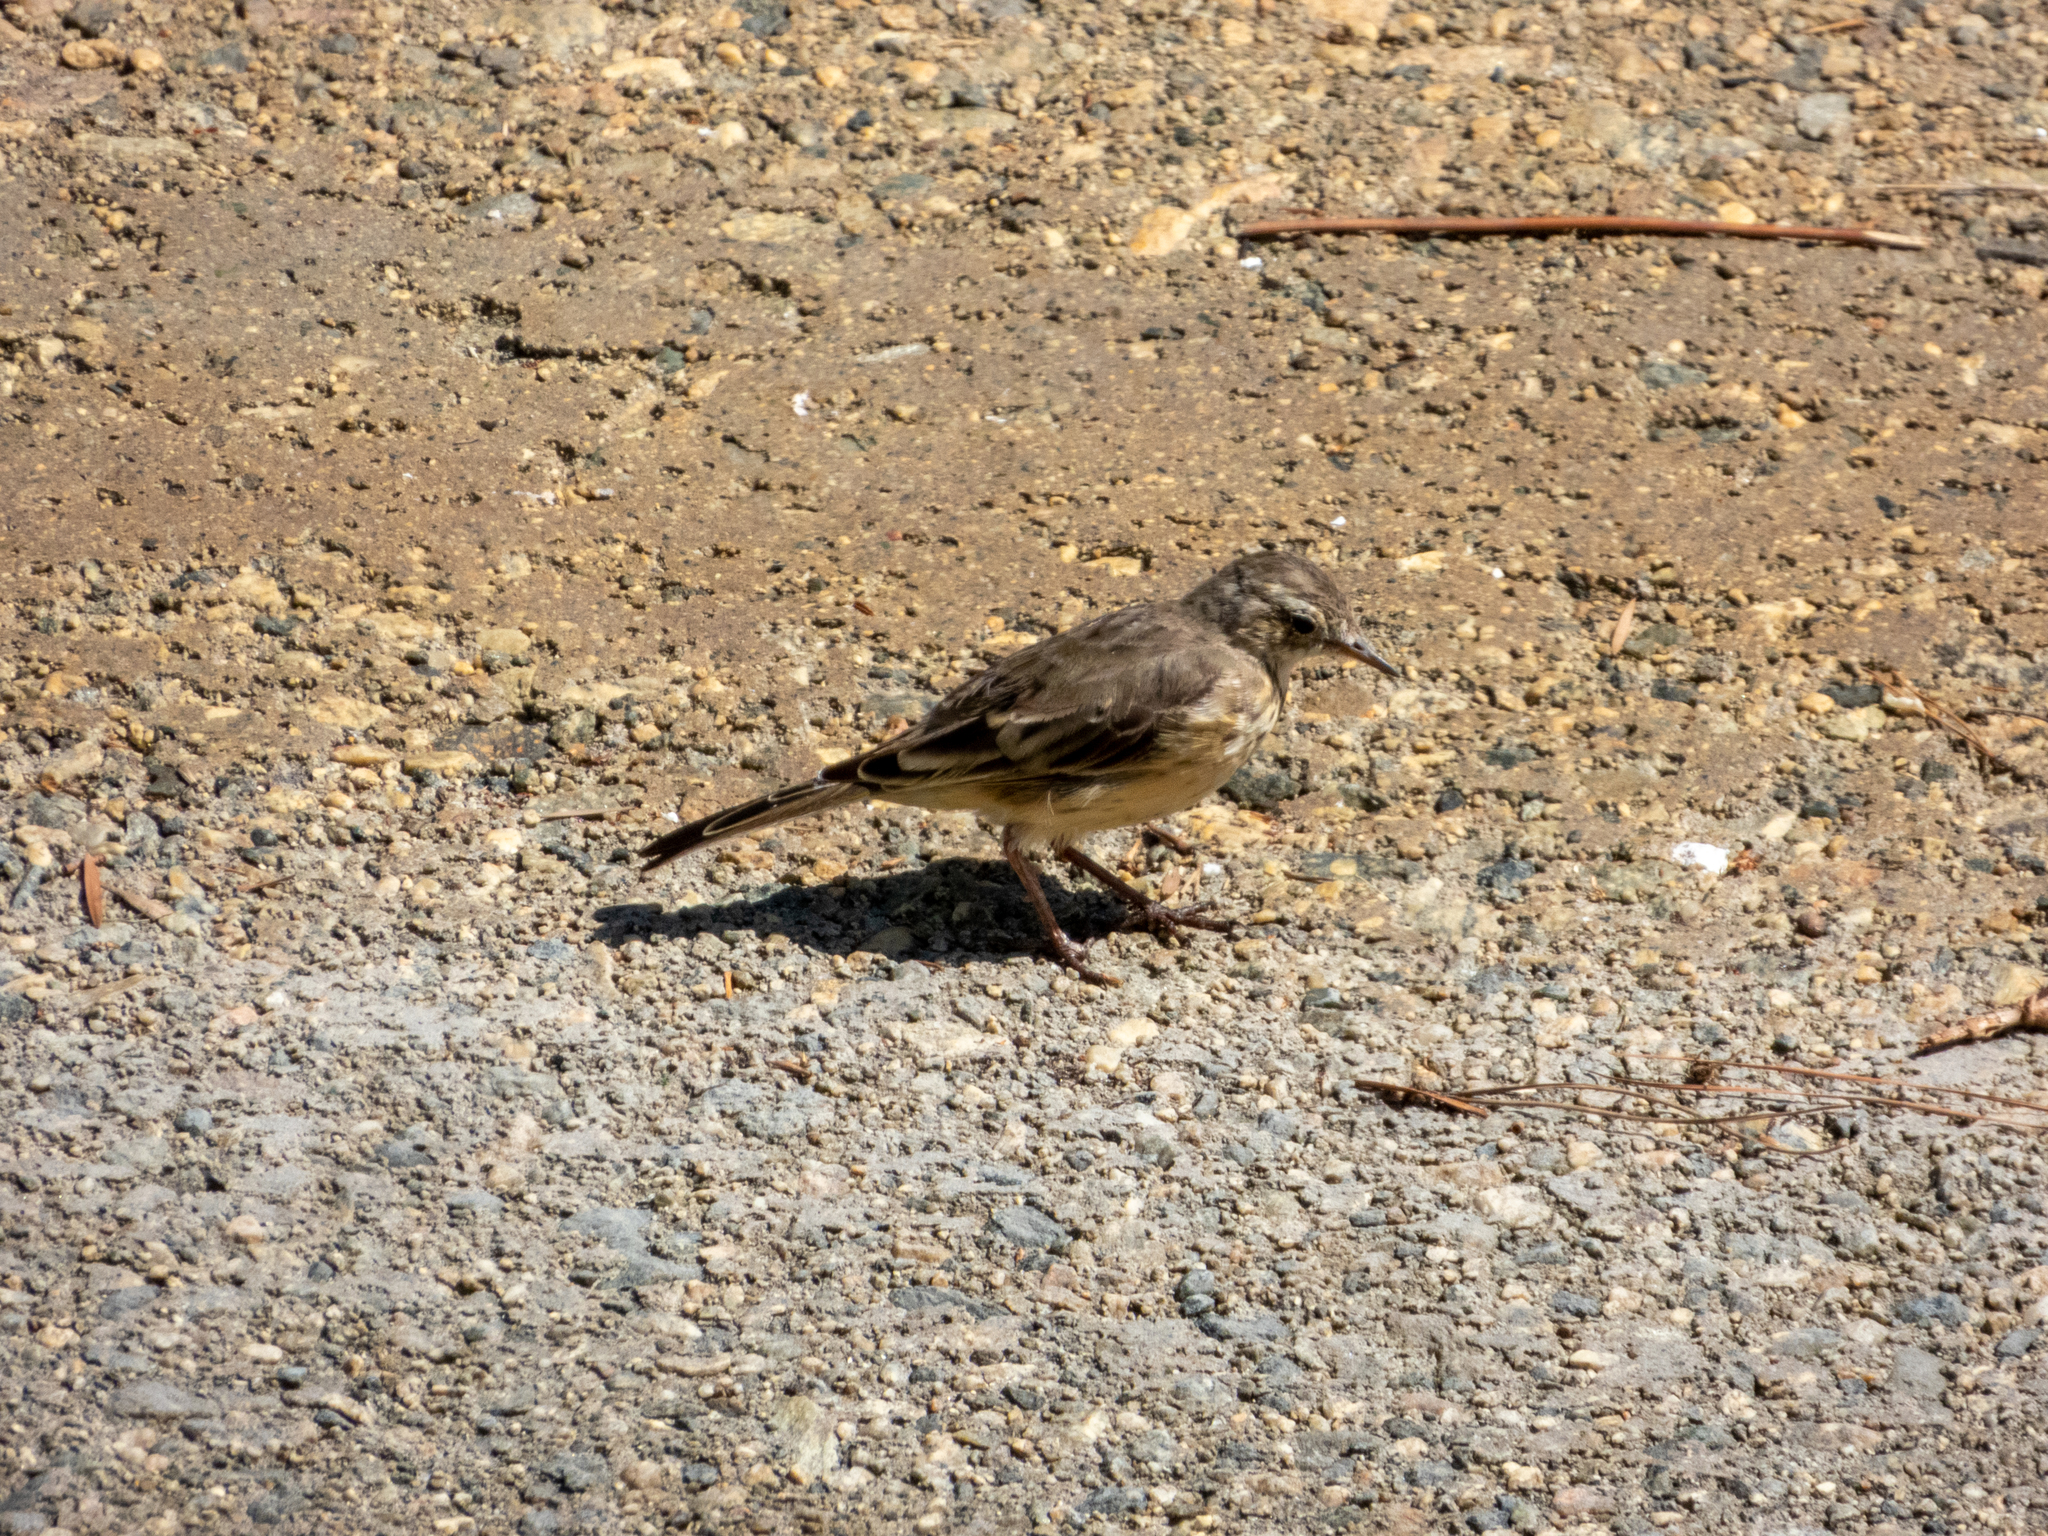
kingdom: Animalia
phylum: Chordata
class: Aves
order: Passeriformes
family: Motacillidae
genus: Anthus
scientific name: Anthus rubescens
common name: Buff-bellied pipit
